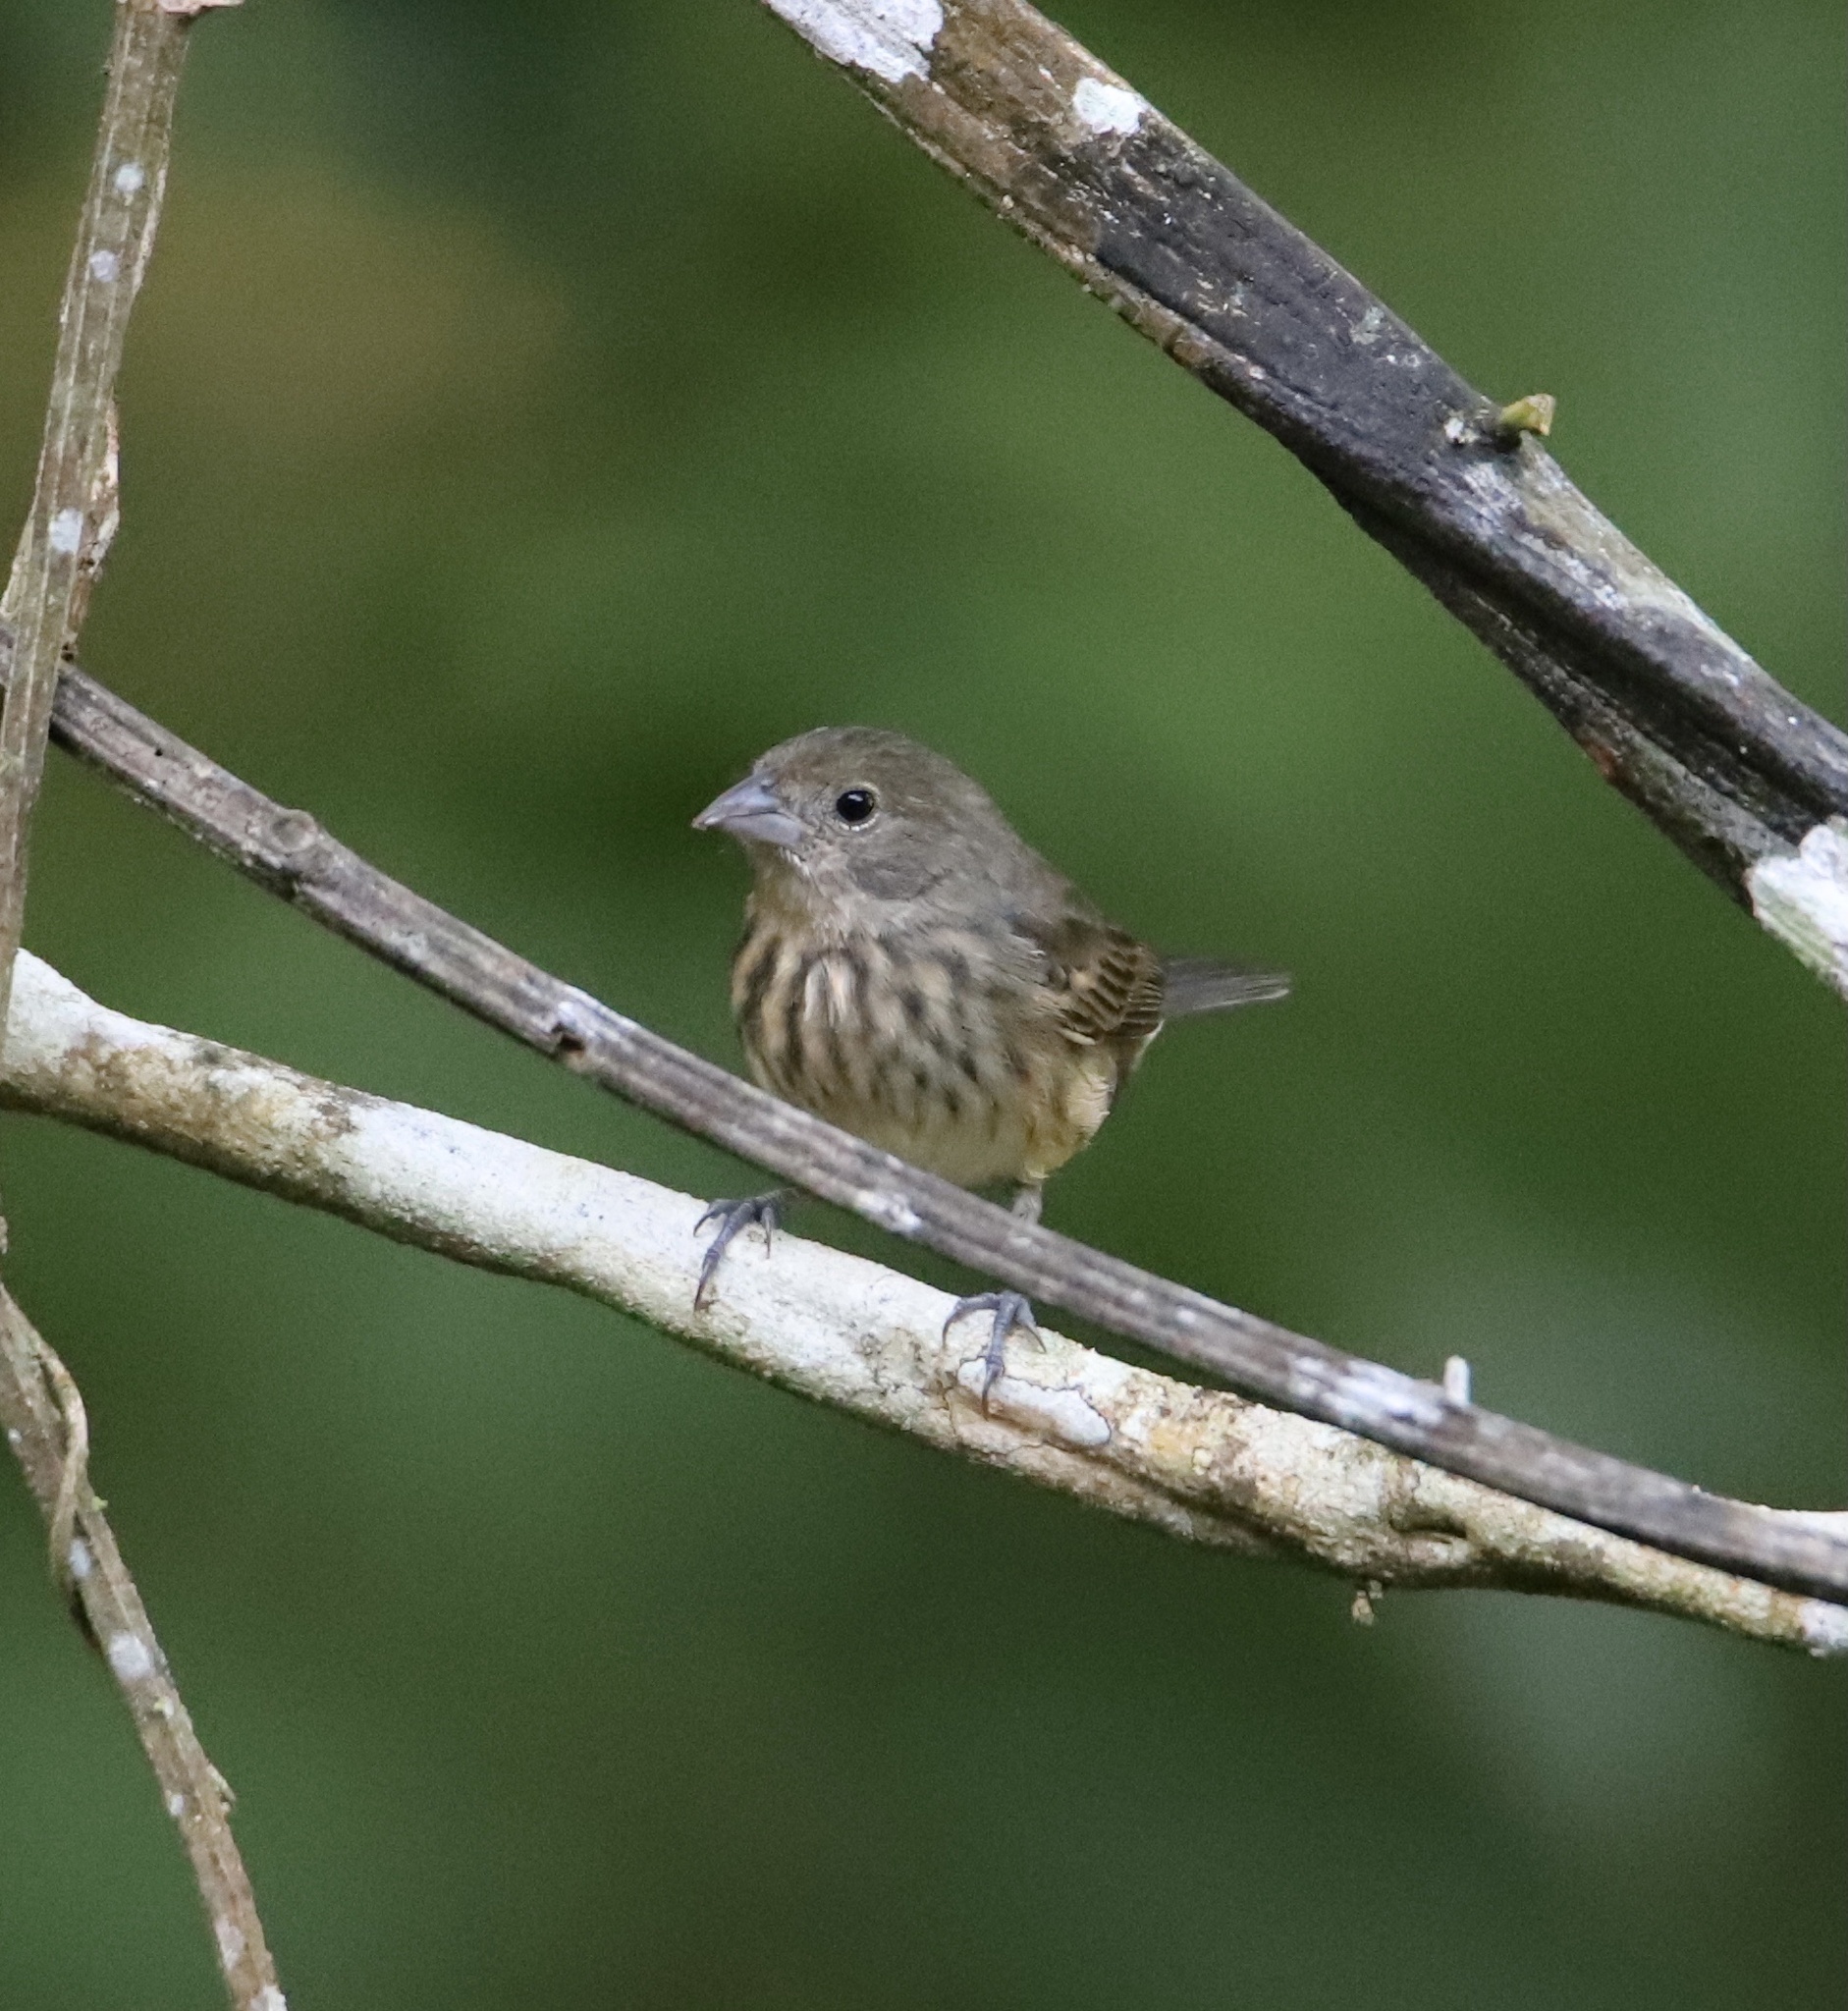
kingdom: Animalia
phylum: Chordata
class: Aves
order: Passeriformes
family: Thraupidae
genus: Volatinia
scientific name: Volatinia jacarina
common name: Blue-black grassquit
